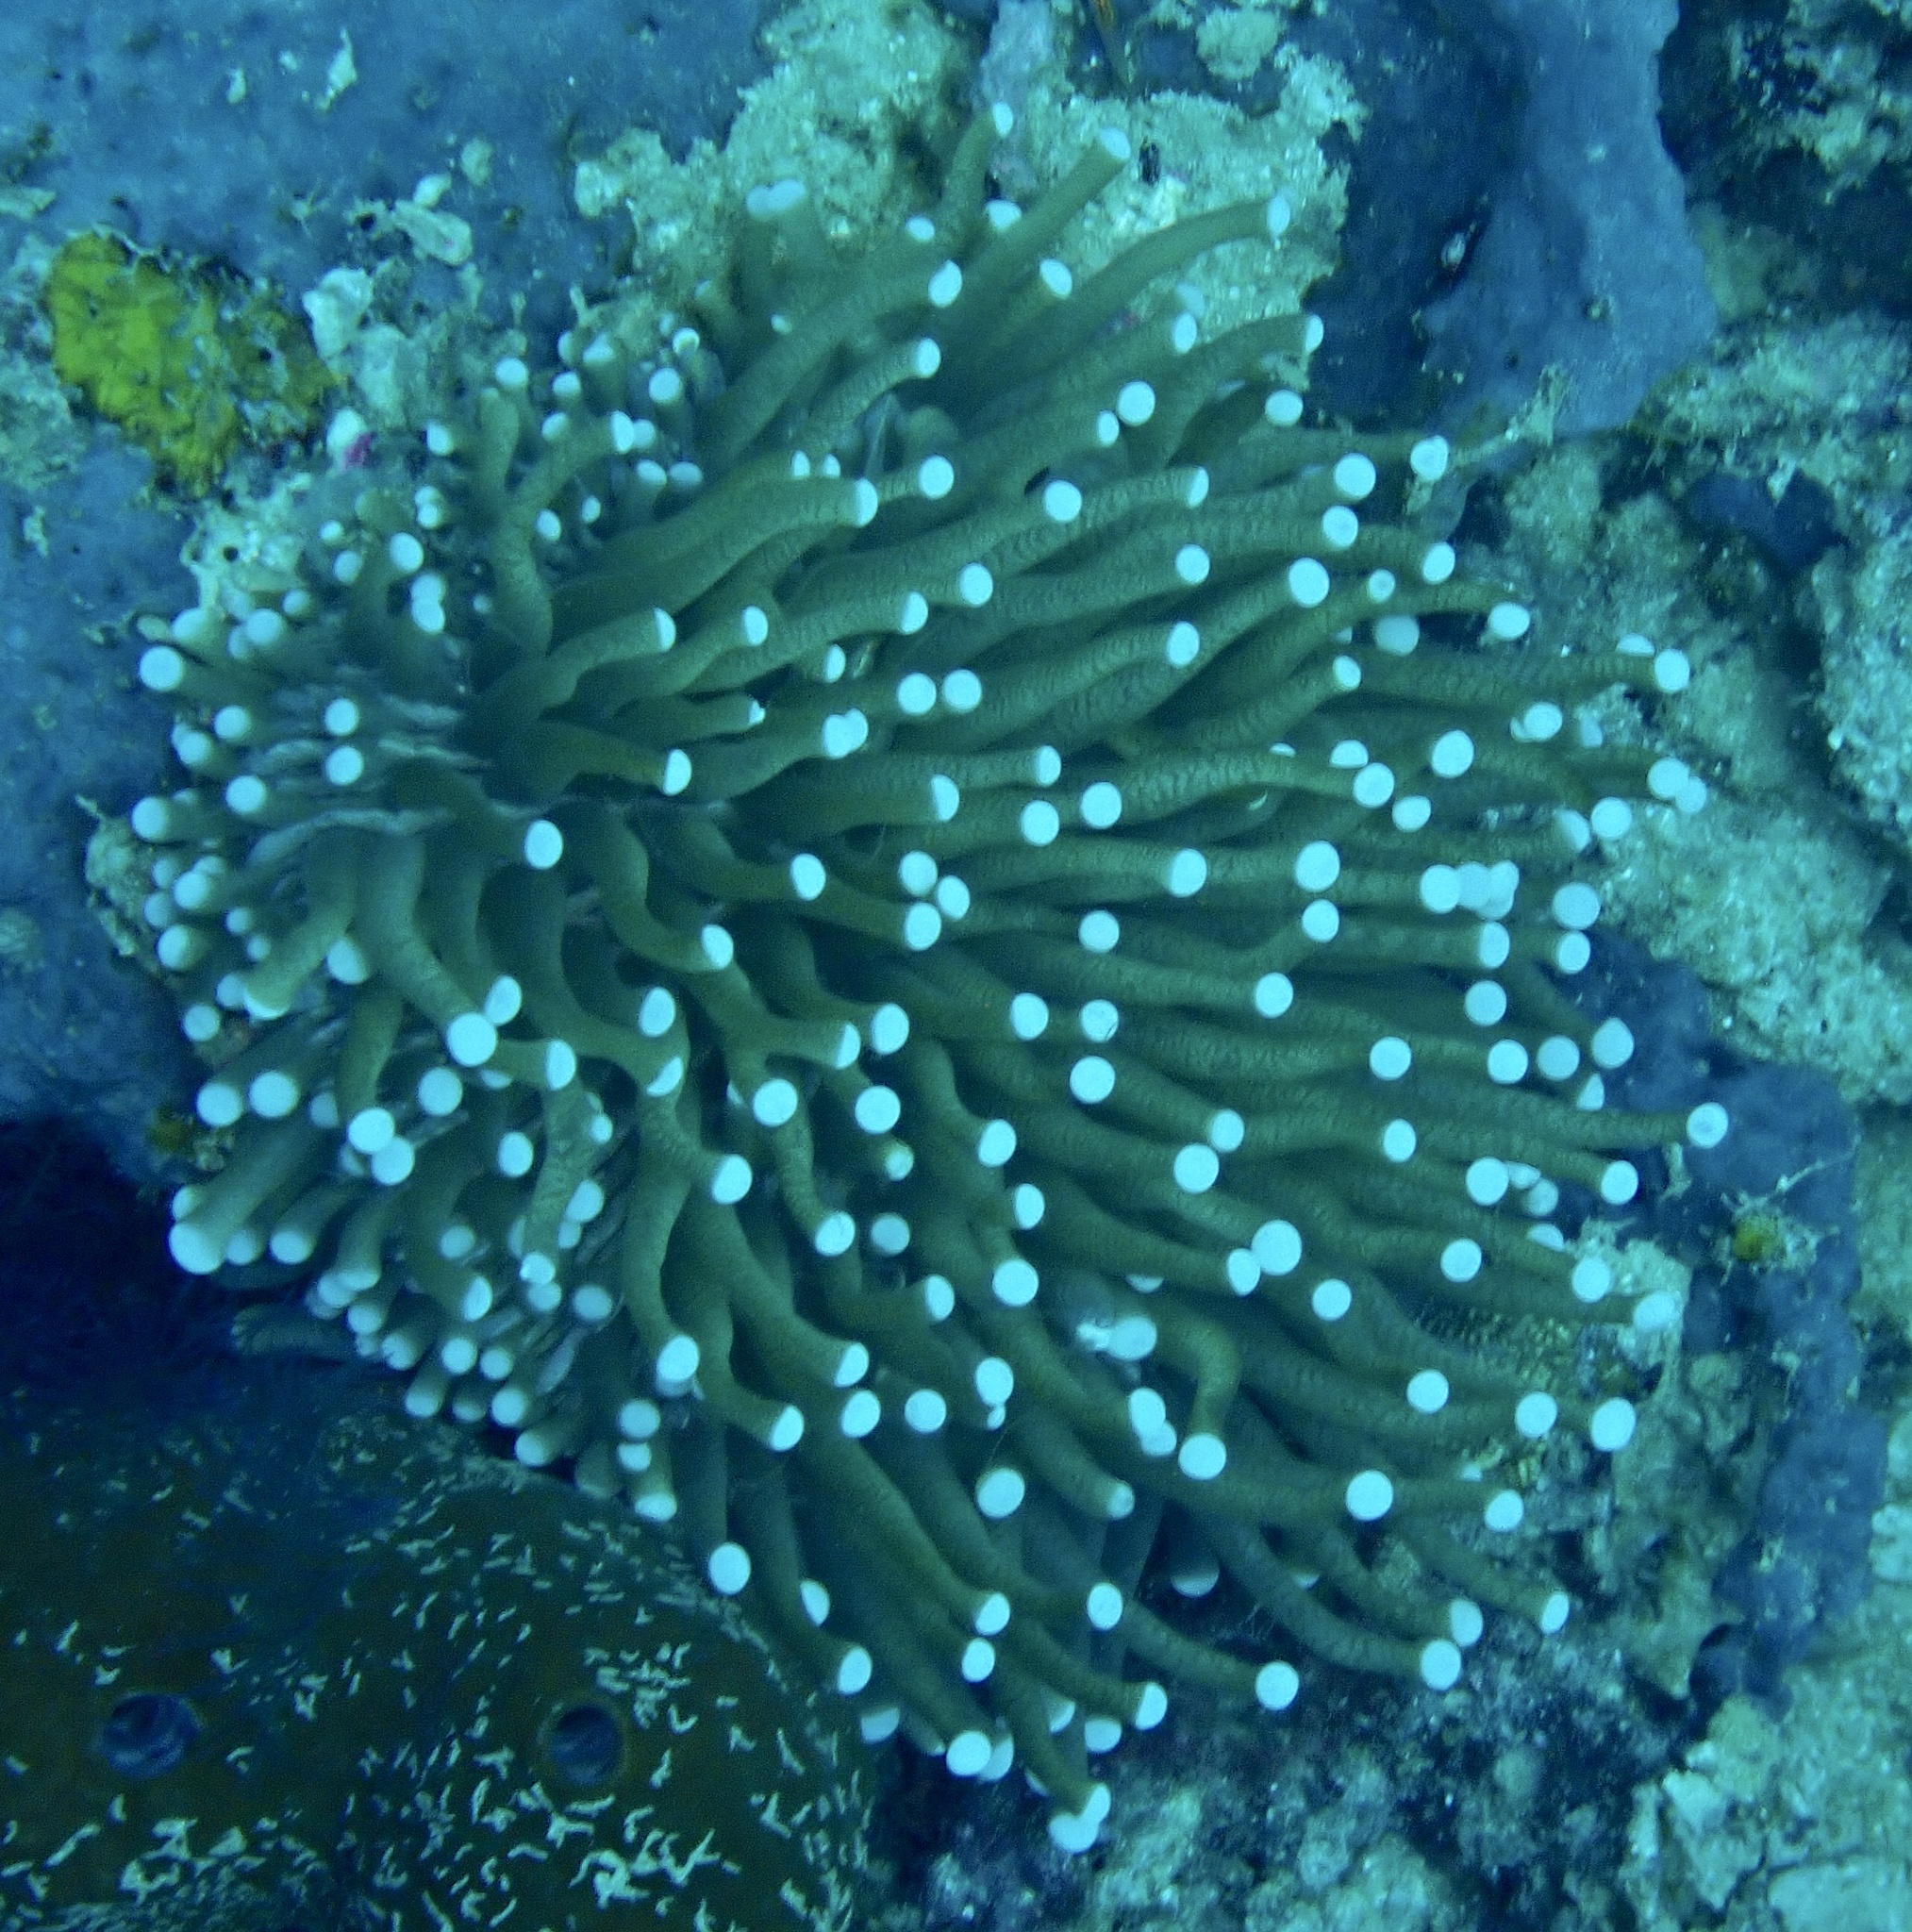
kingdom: Animalia
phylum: Cnidaria
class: Anthozoa
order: Scleractinia
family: Fungiidae
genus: Heliofungia
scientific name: Heliofungia actiniformis
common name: Plate coral
